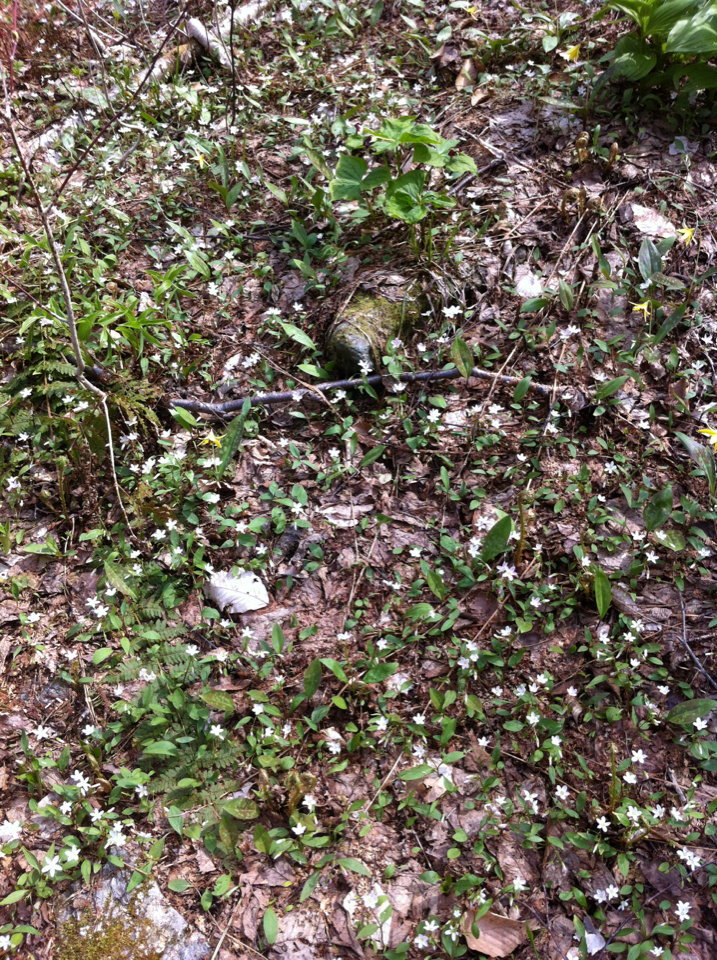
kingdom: Plantae
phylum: Tracheophyta
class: Magnoliopsida
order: Caryophyllales
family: Montiaceae
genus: Claytonia
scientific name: Claytonia caroliniana
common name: Carolina spring beauty
